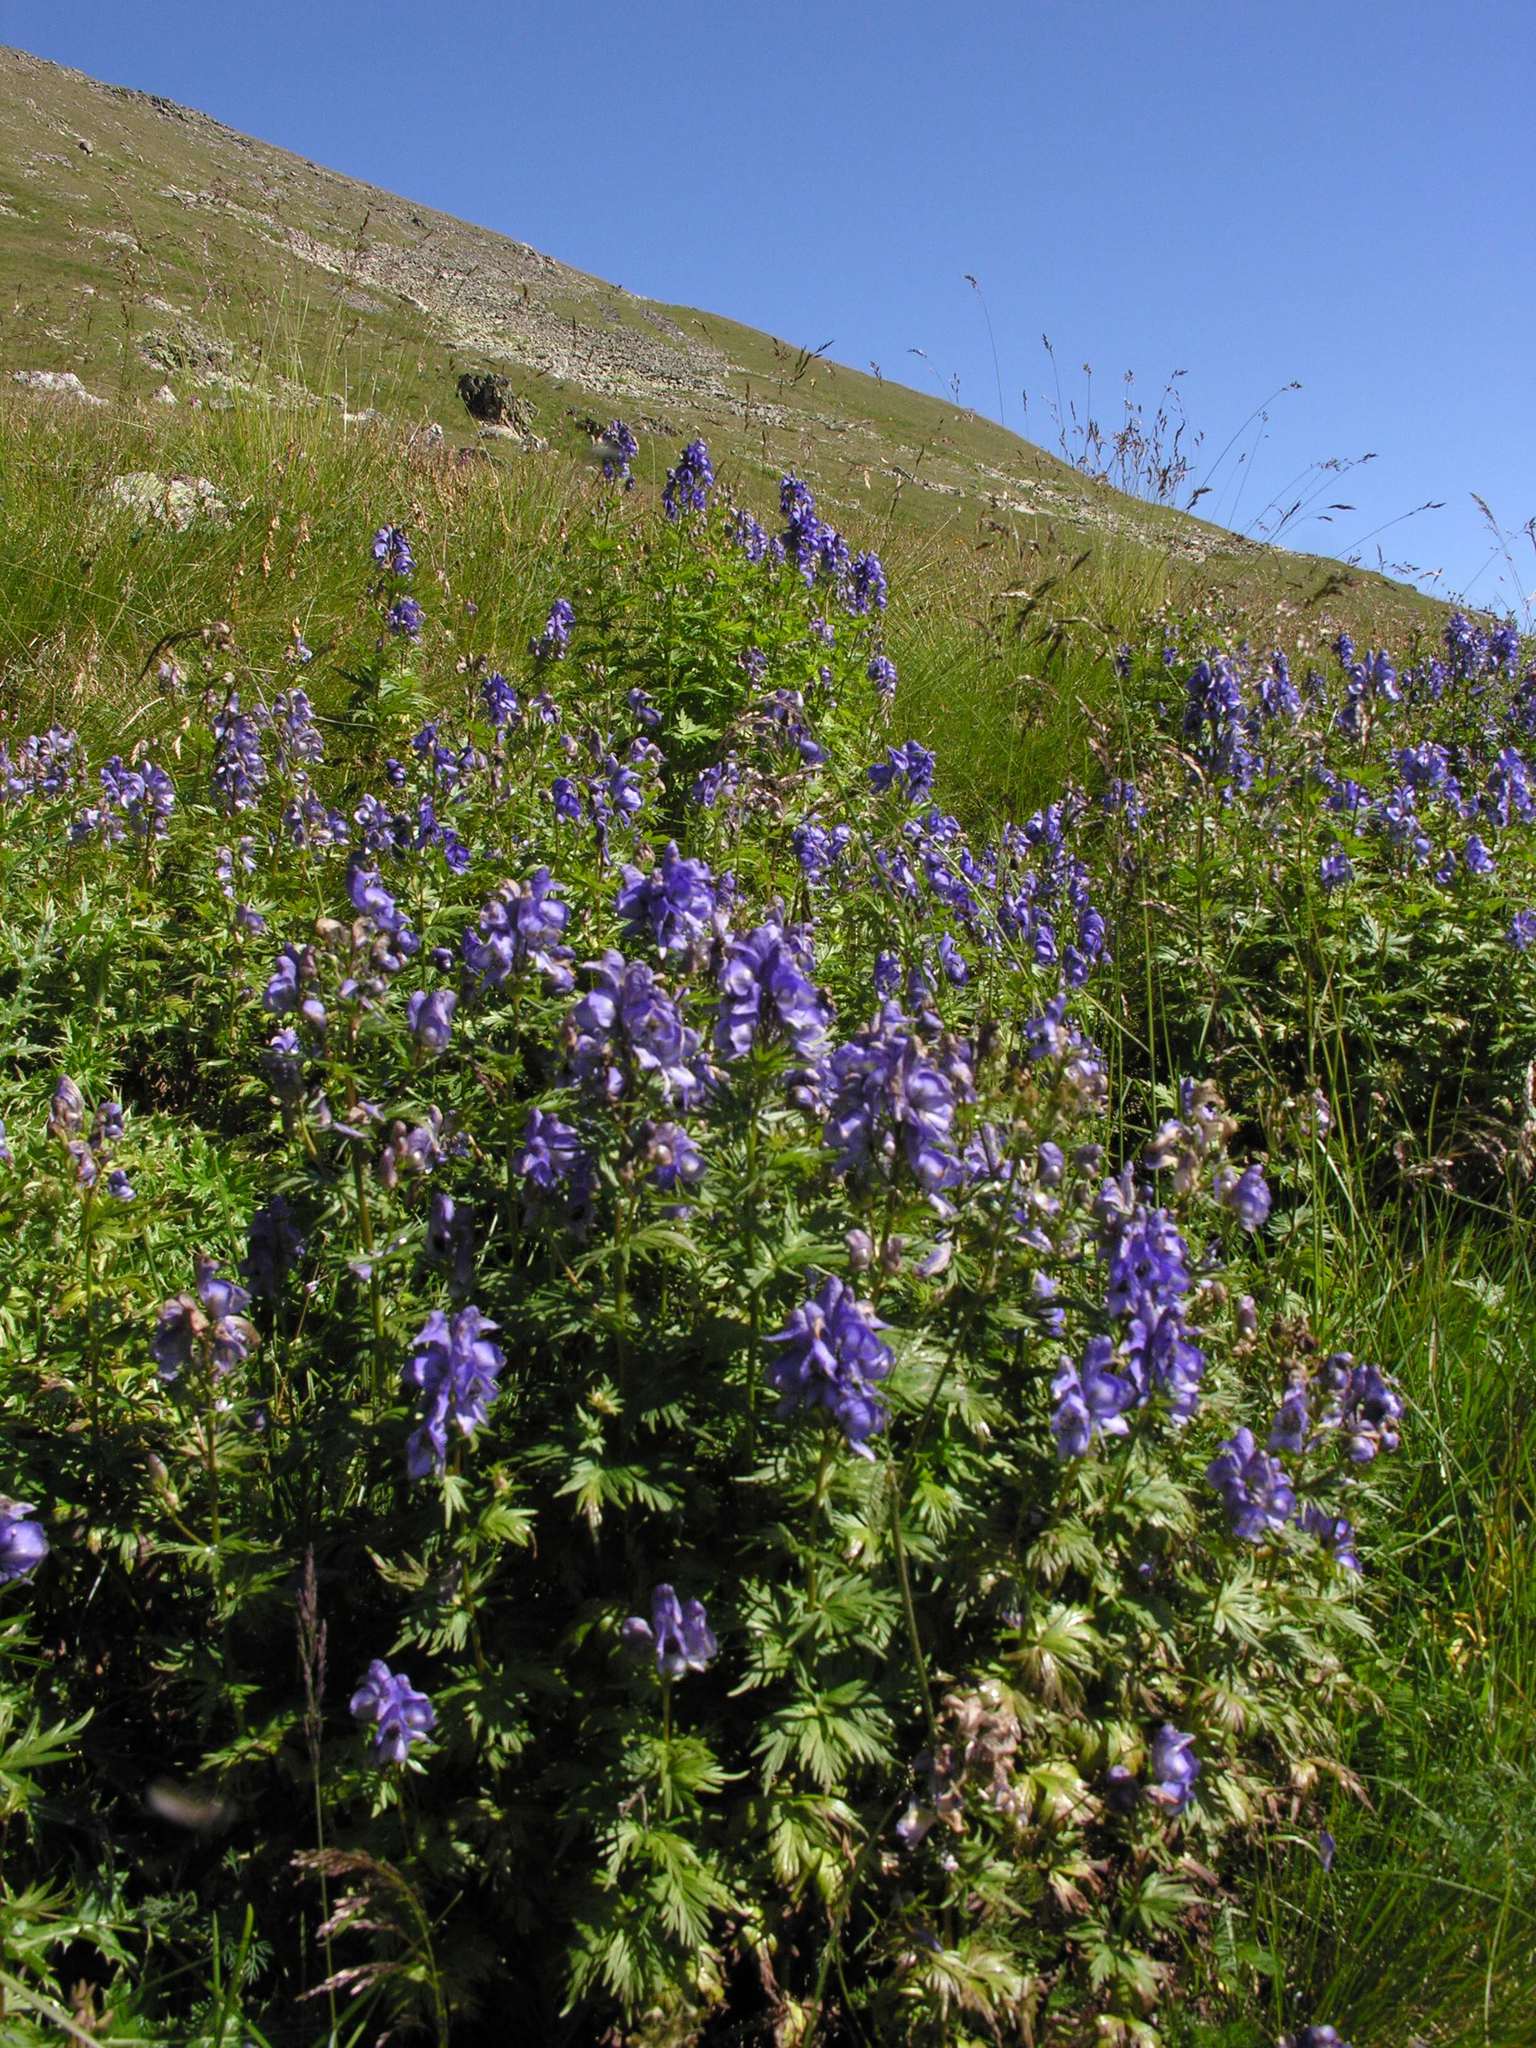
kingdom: Plantae
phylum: Tracheophyta
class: Magnoliopsida
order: Ranunculales
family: Ranunculaceae
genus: Aconitum
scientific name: Aconitum
